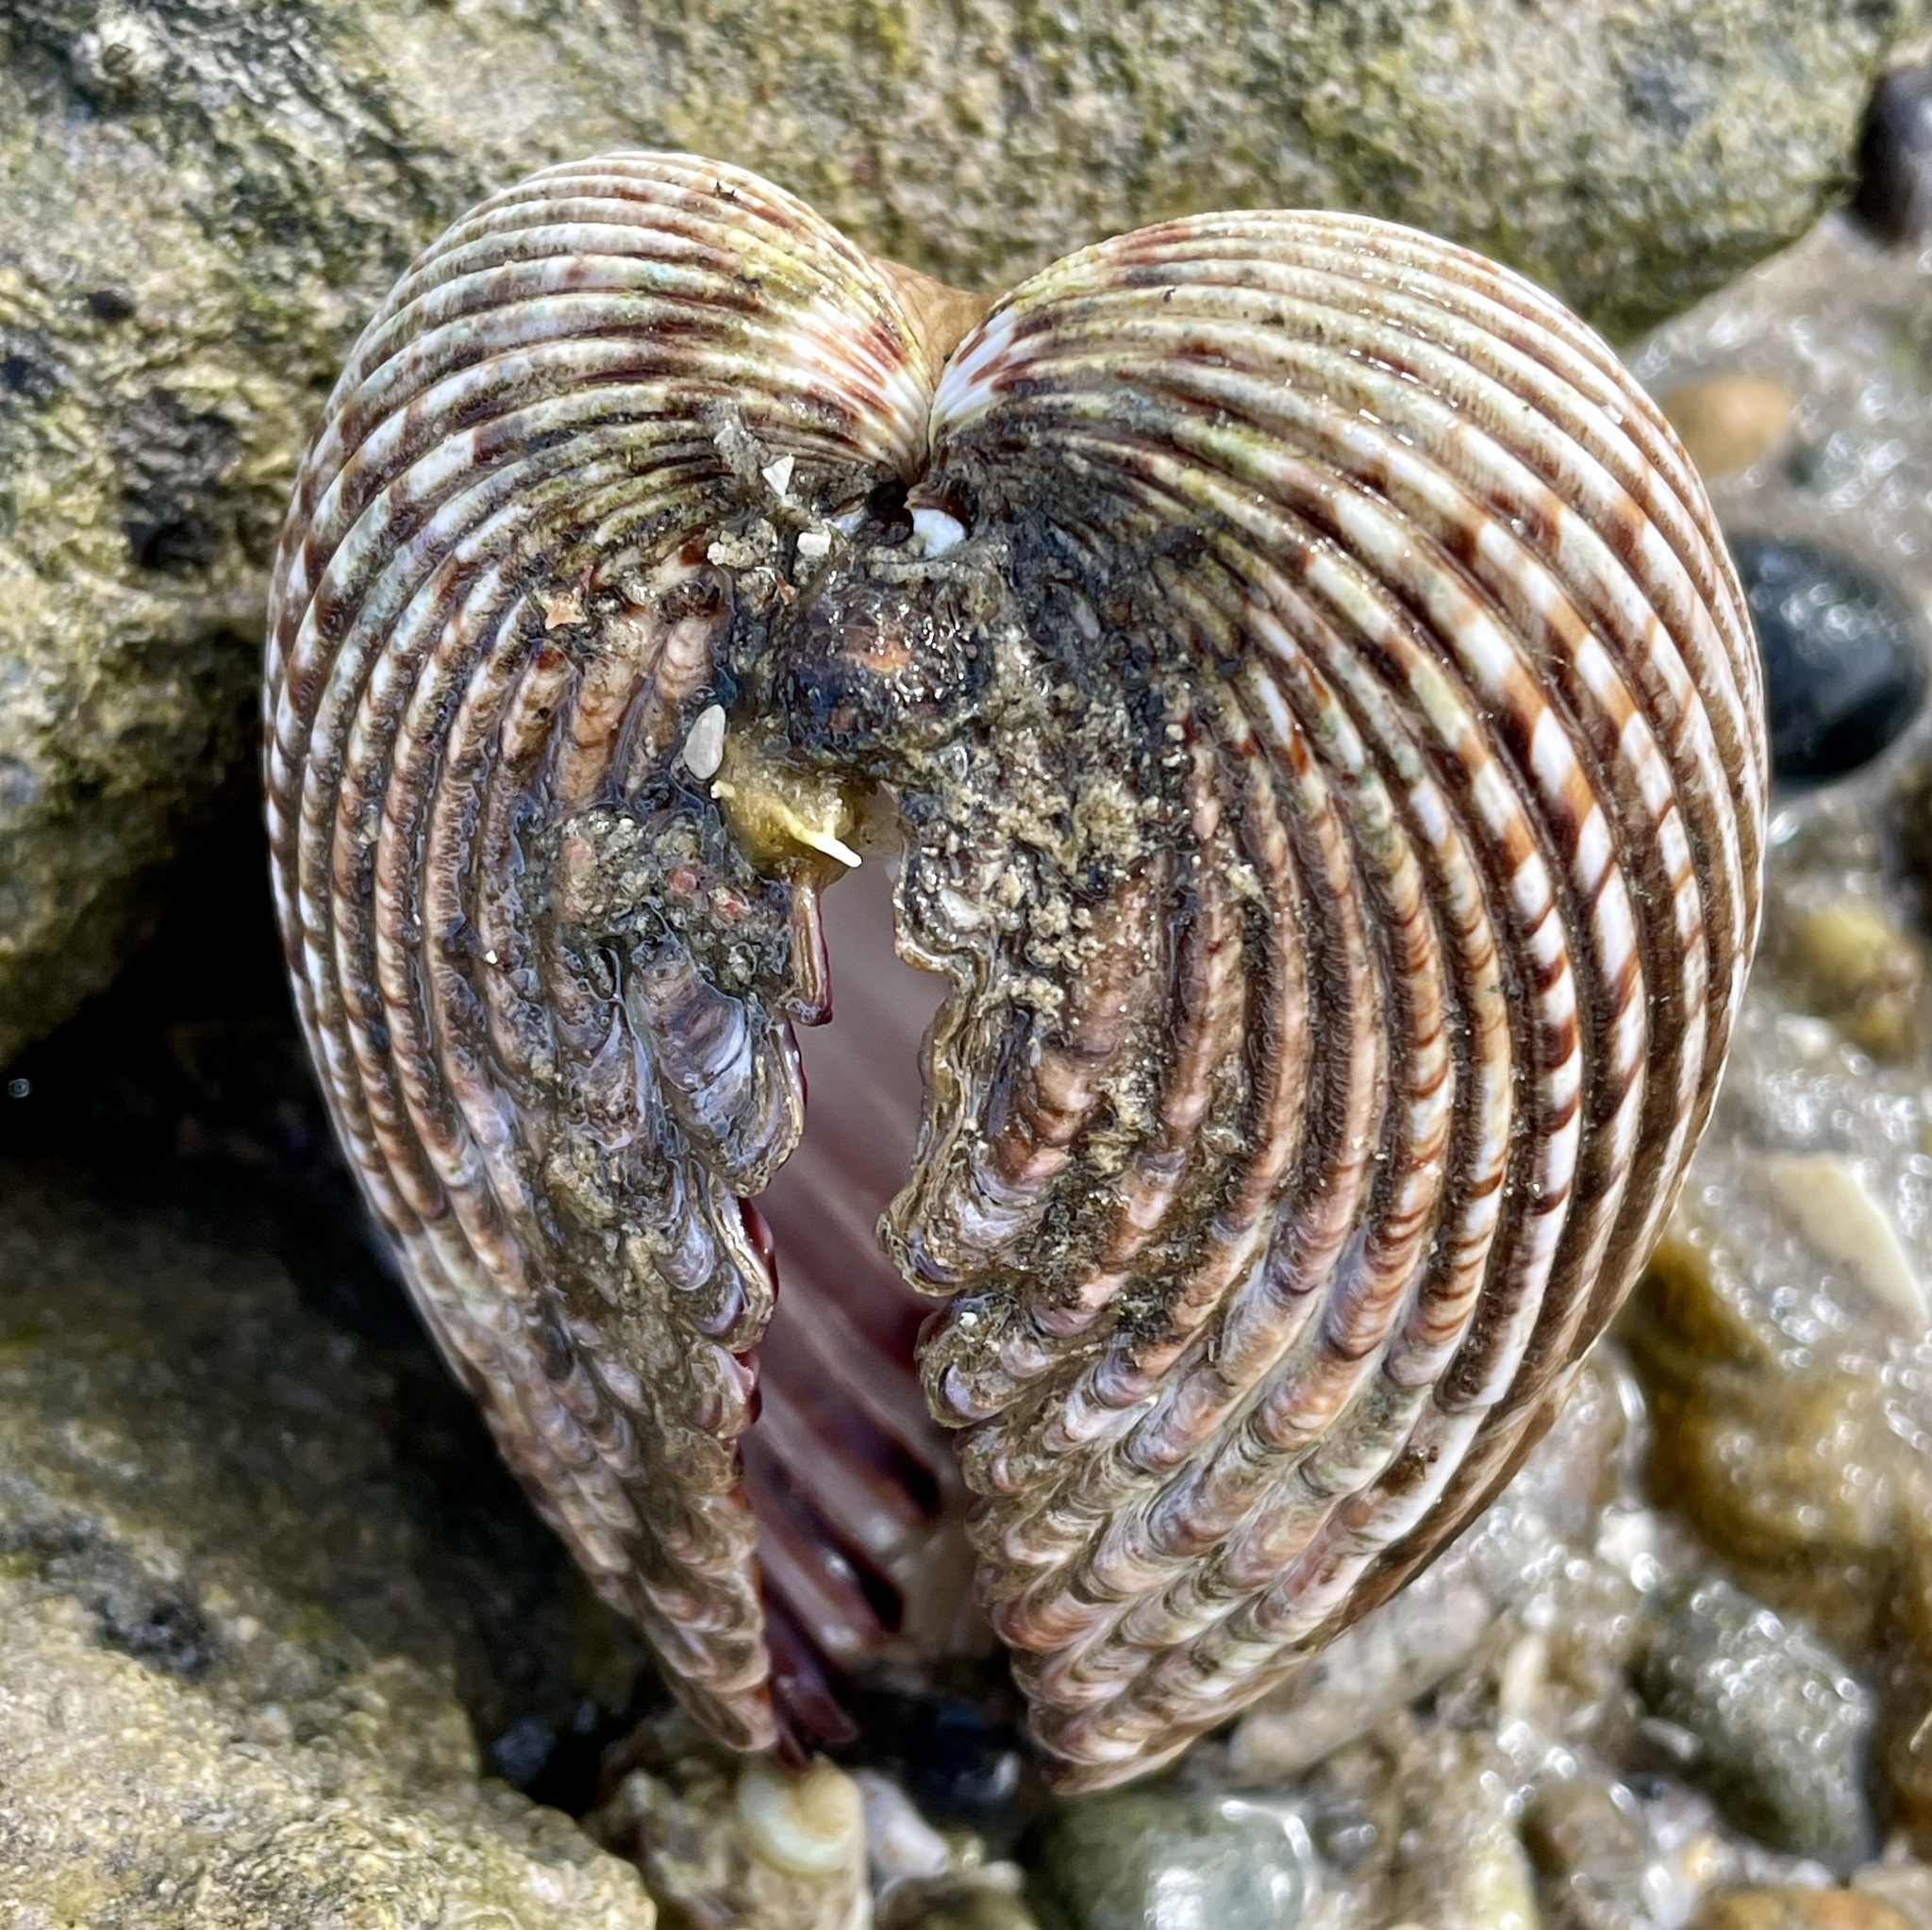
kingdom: Animalia
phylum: Mollusca
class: Bivalvia
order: Cardiida
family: Cardiidae
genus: Trachycardium
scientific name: Trachycardium procerum
